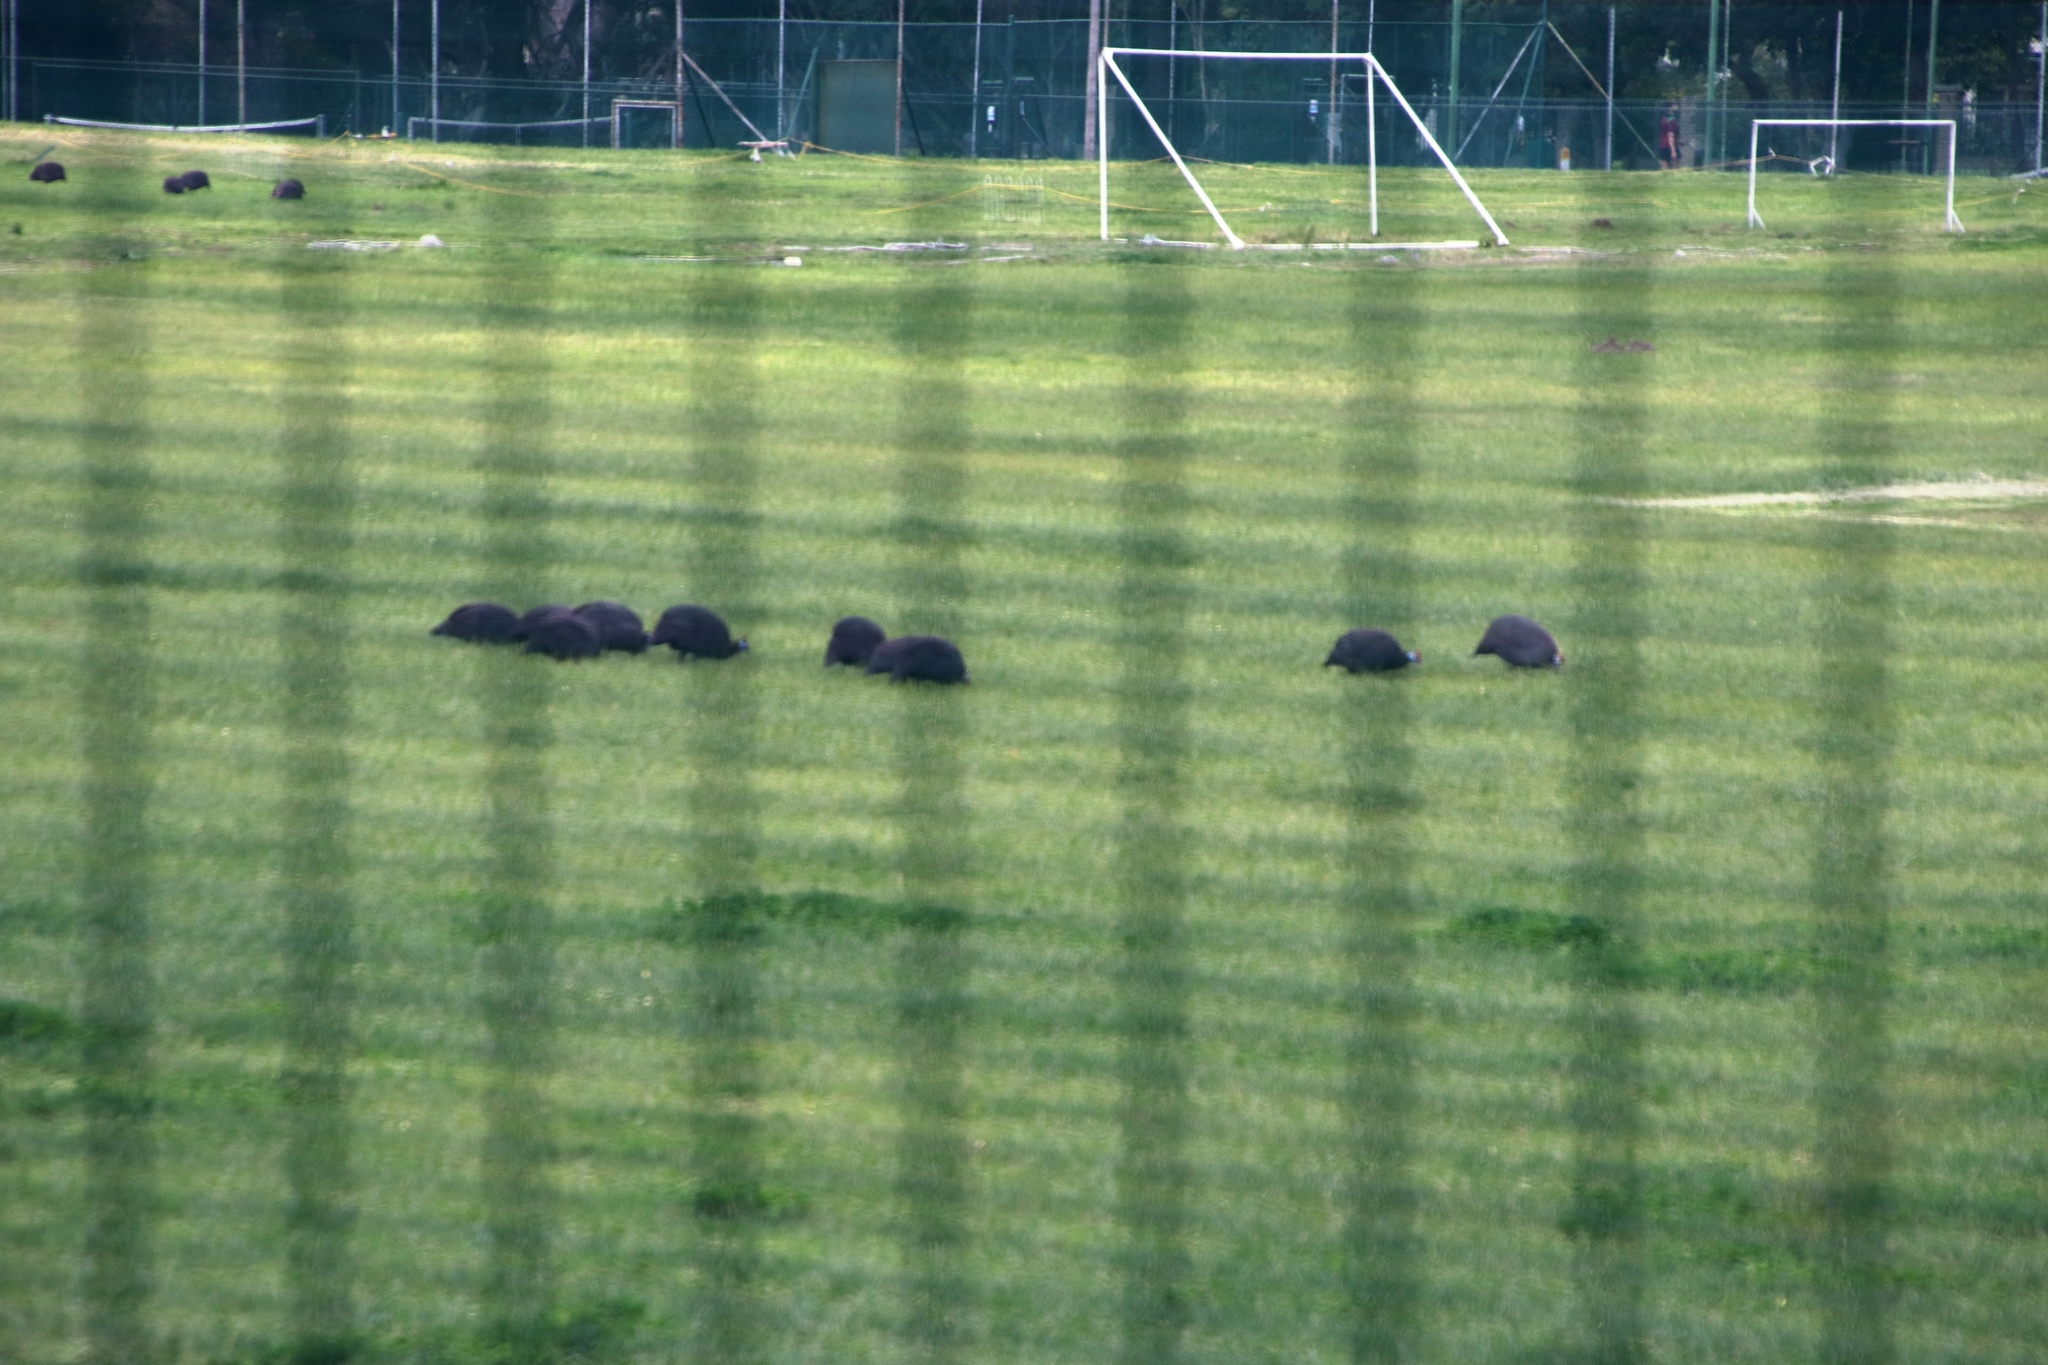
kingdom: Animalia
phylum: Chordata
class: Aves
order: Galliformes
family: Numididae
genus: Numida
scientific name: Numida meleagris
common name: Helmeted guineafowl
